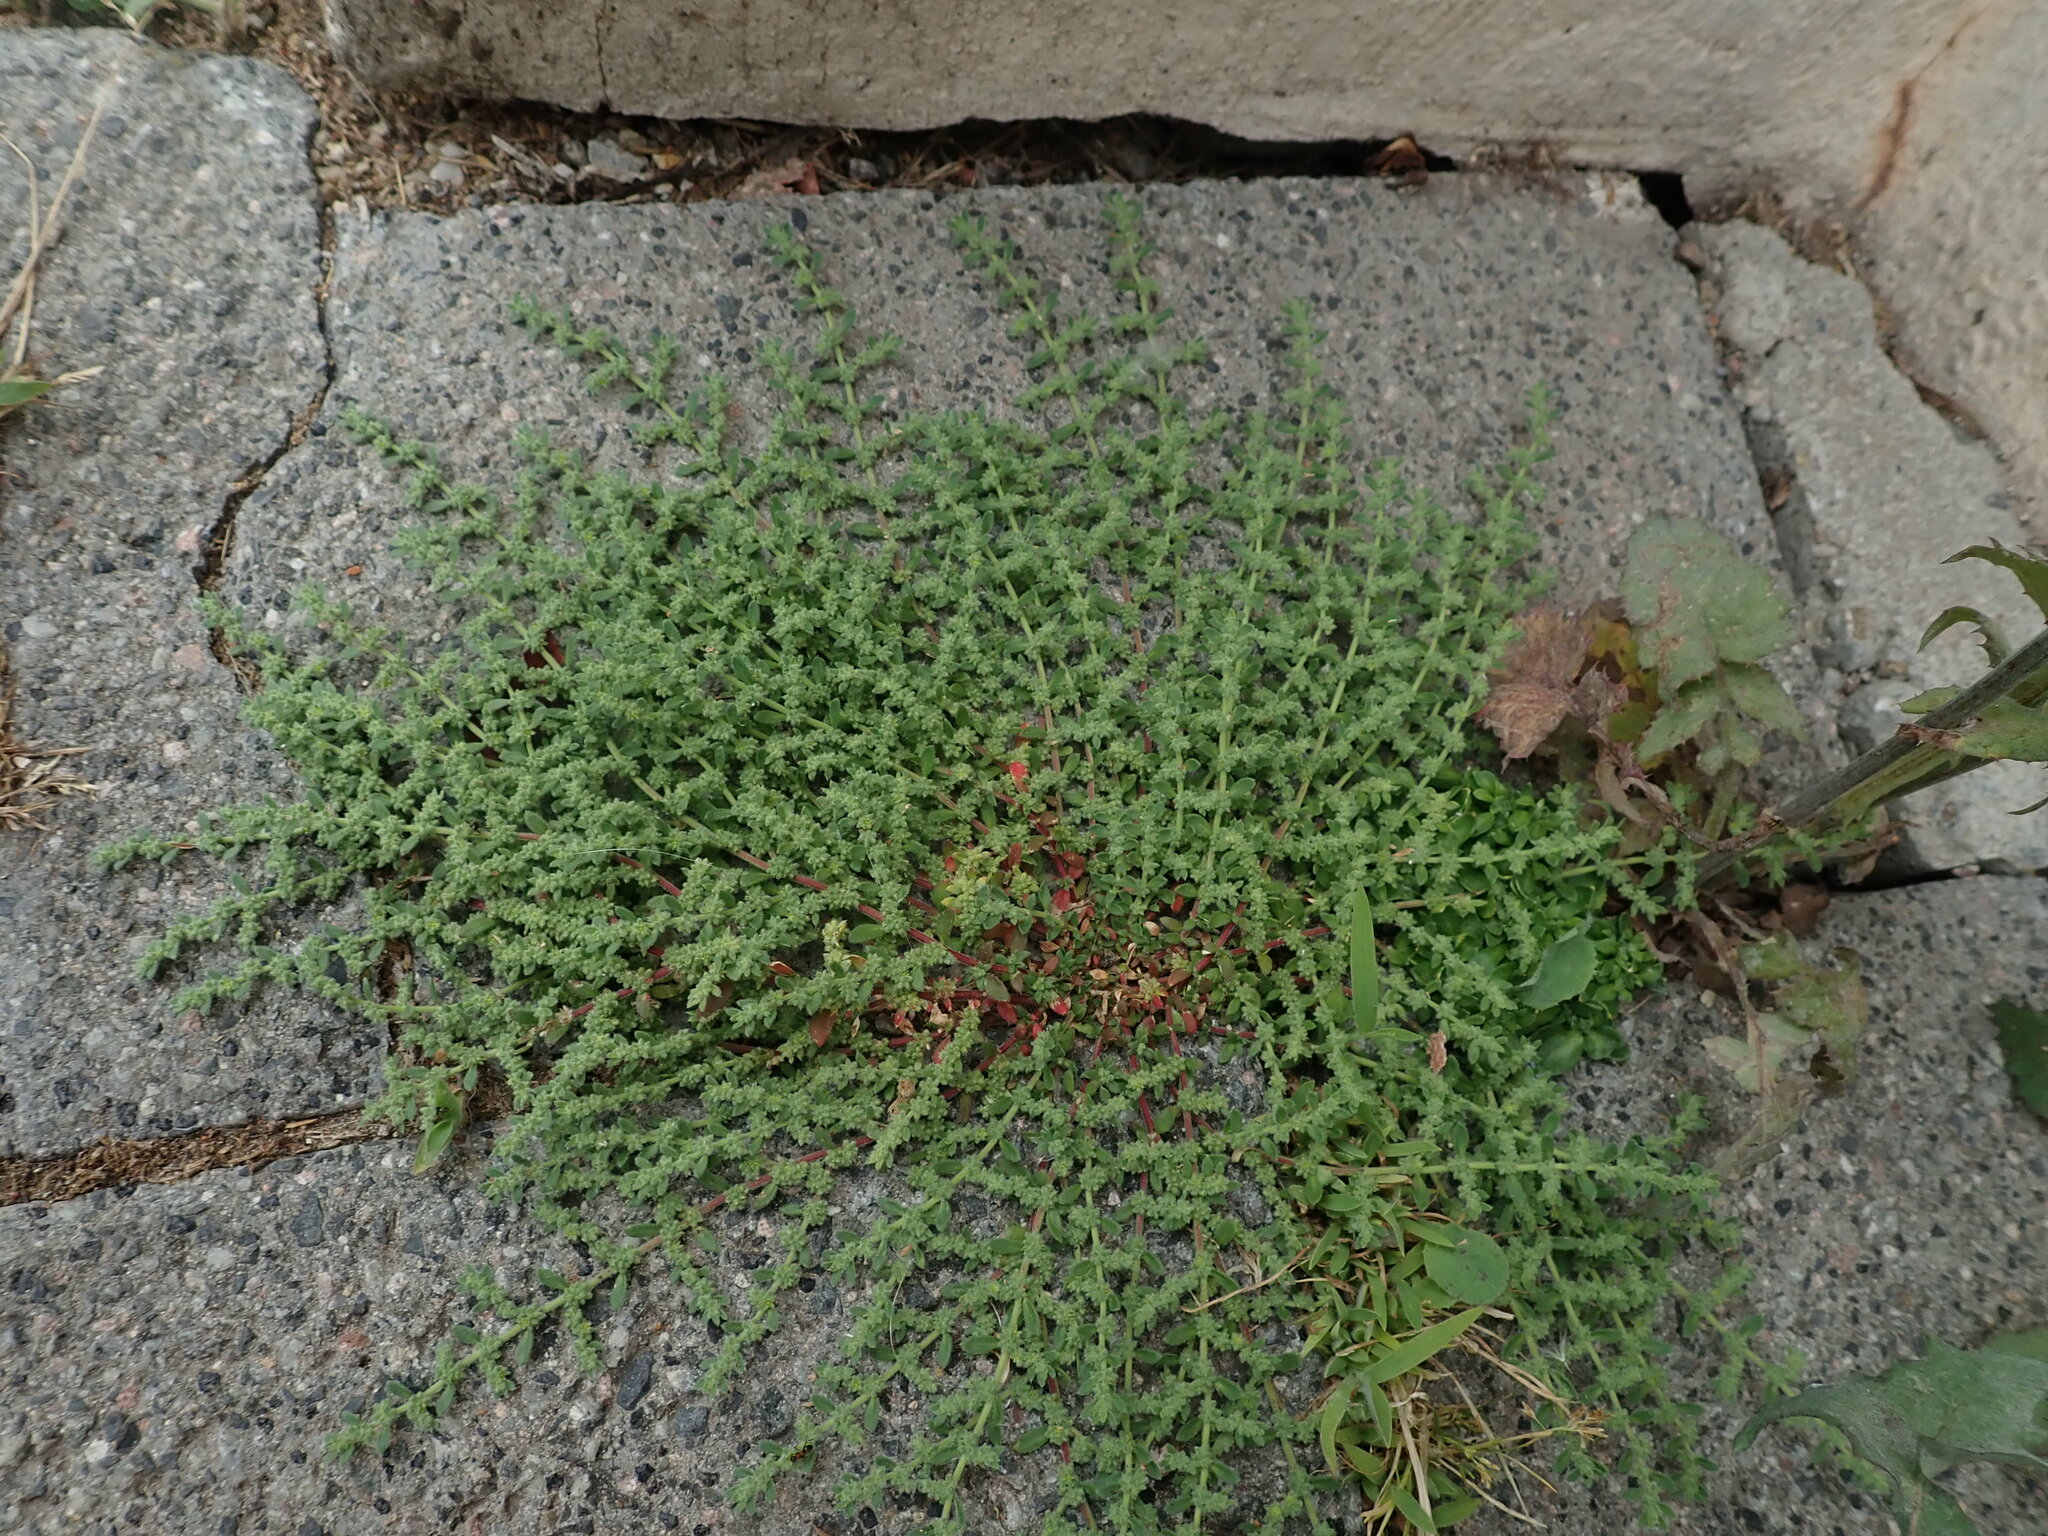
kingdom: Plantae
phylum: Tracheophyta
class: Magnoliopsida
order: Caryophyllales
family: Caryophyllaceae
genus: Herniaria
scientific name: Herniaria hirsuta
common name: Hairy rupturewort
